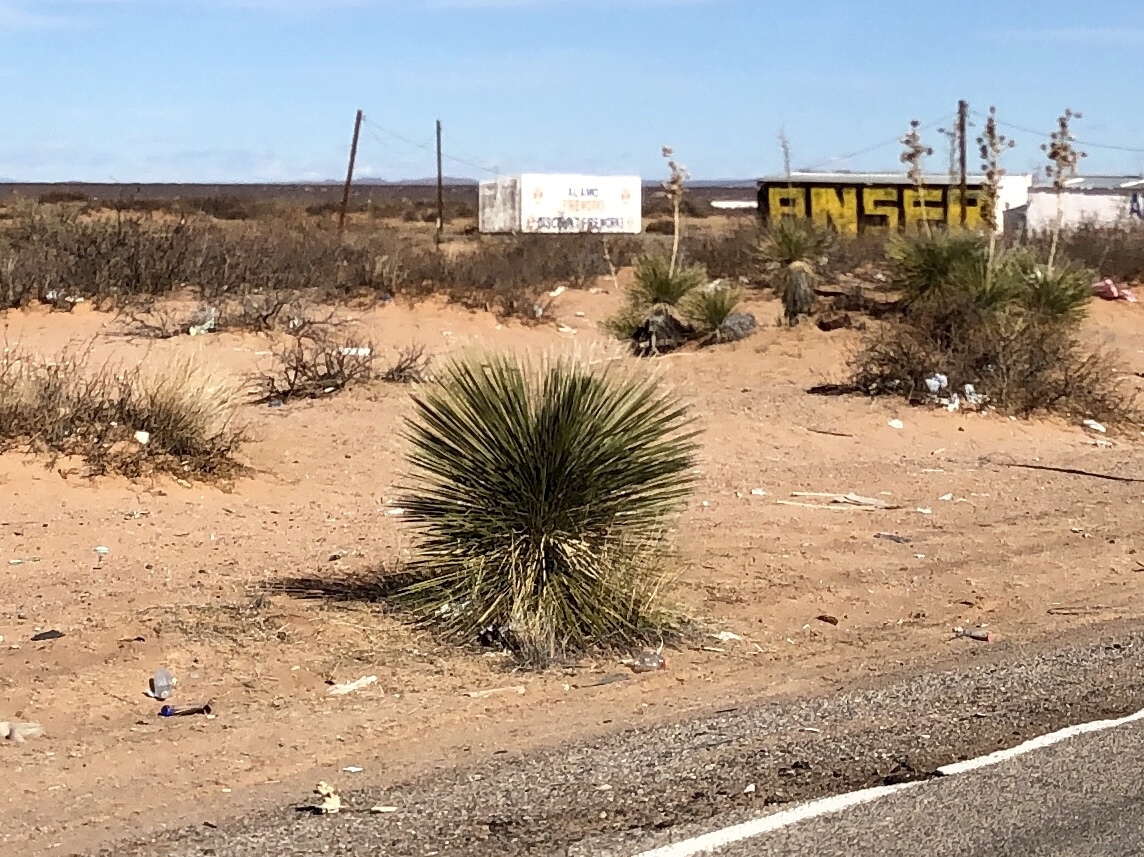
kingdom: Plantae
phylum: Tracheophyta
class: Liliopsida
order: Asparagales
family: Asparagaceae
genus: Yucca
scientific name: Yucca elata
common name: Palmella
